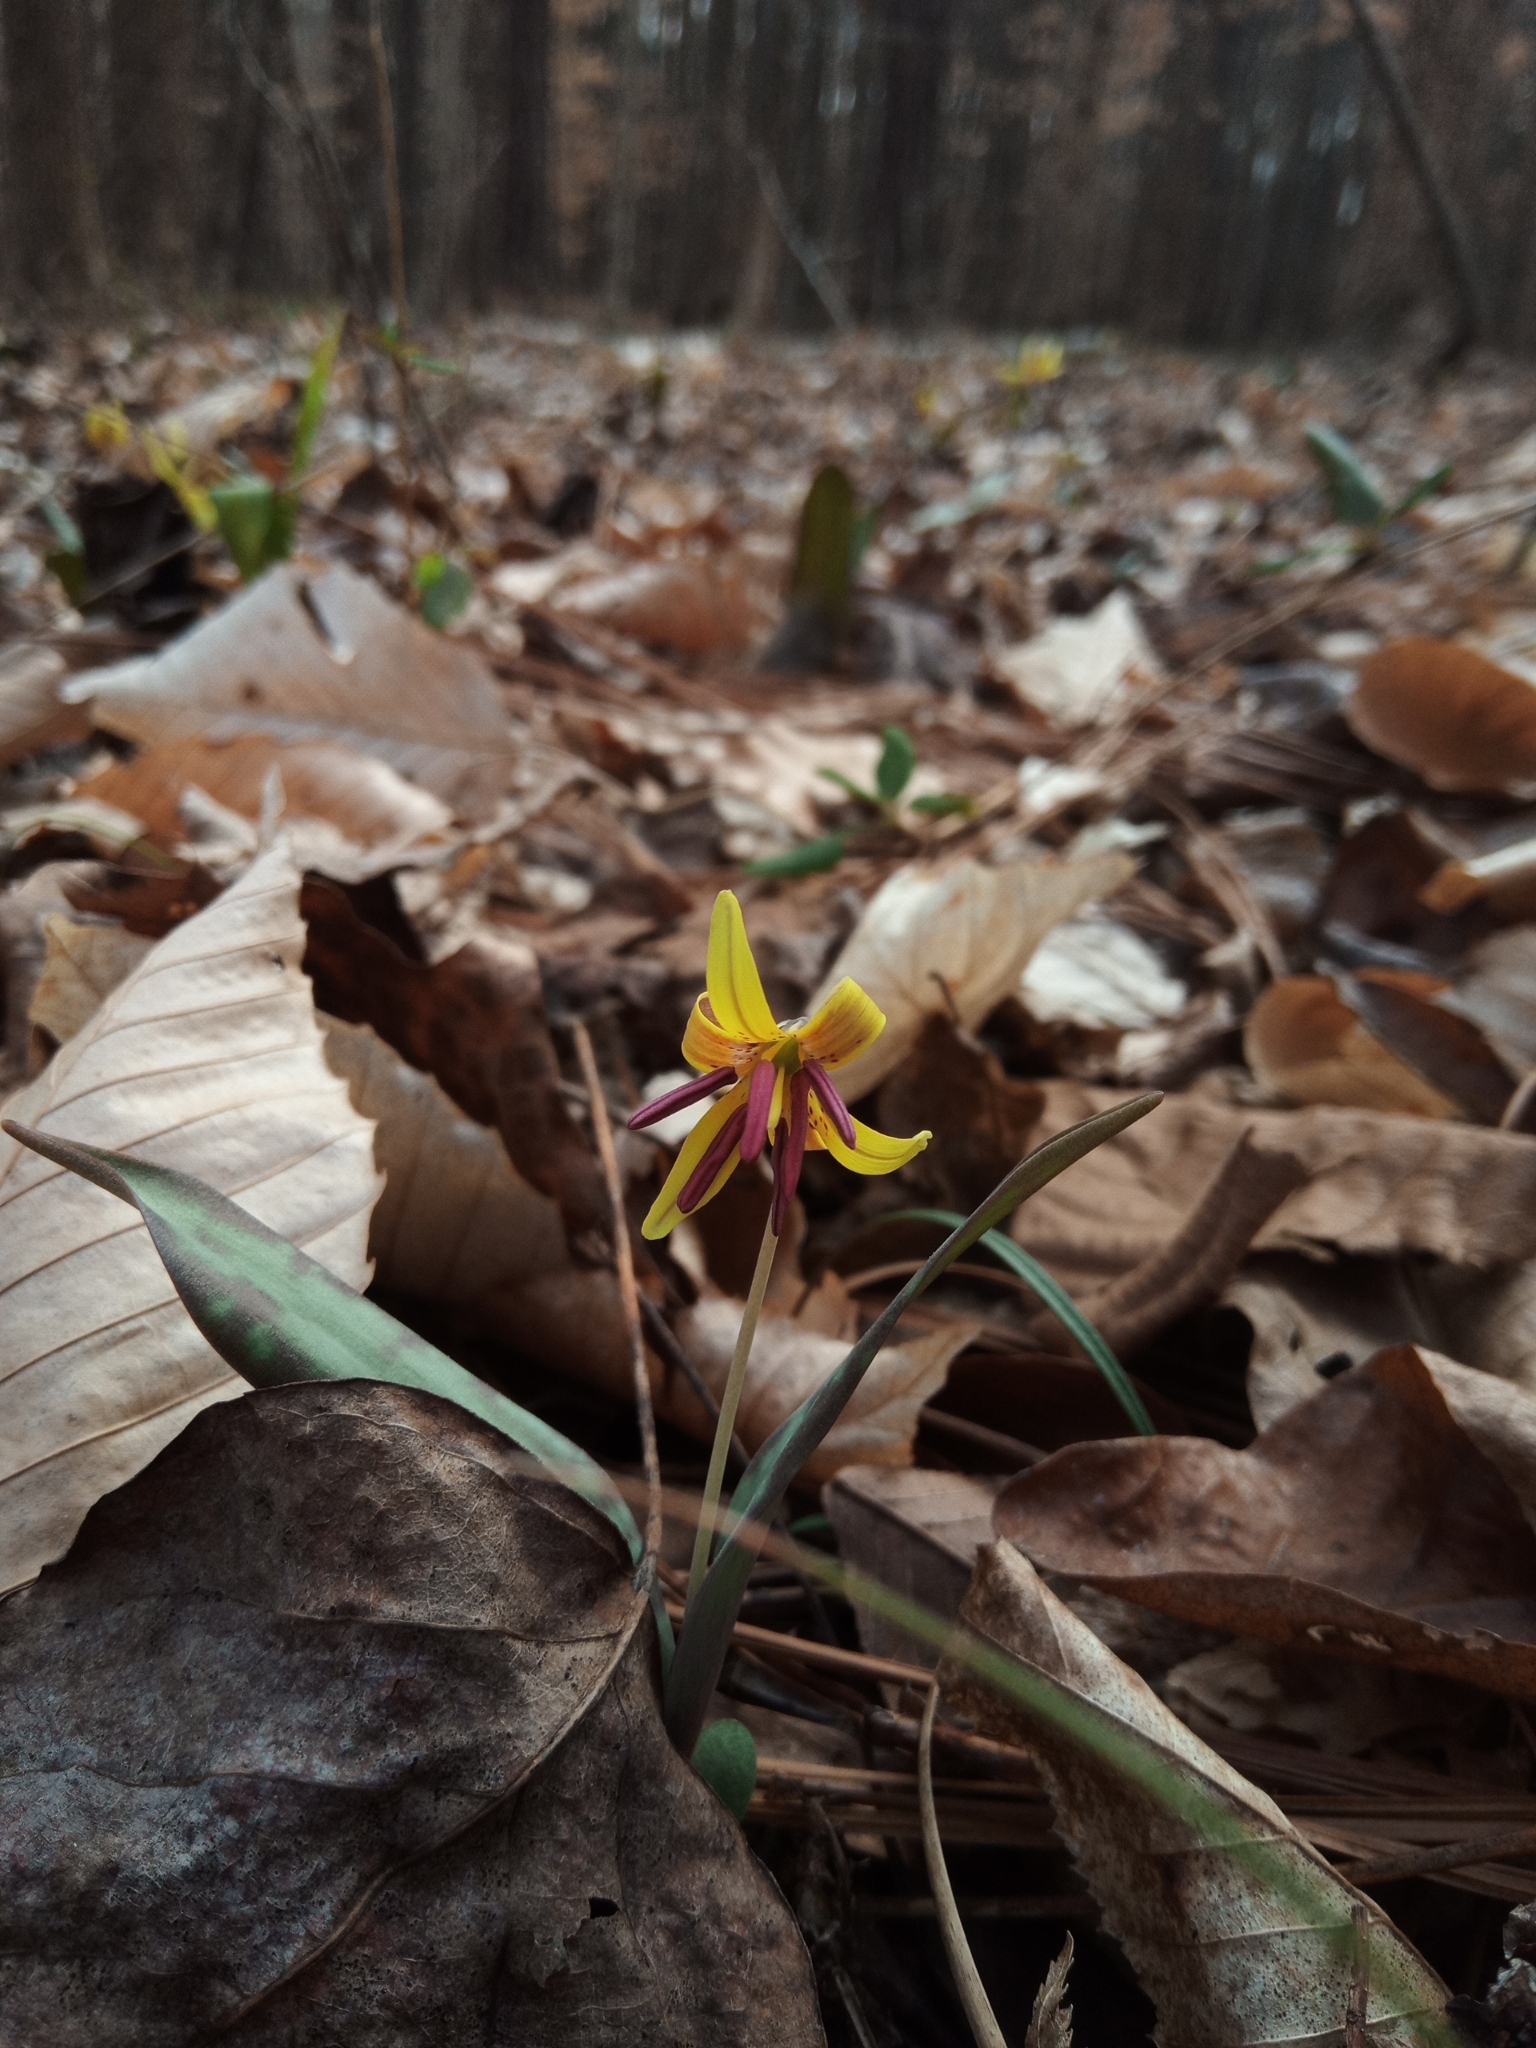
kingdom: Plantae
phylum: Tracheophyta
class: Liliopsida
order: Liliales
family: Liliaceae
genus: Erythronium
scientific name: Erythronium umbilicatum
